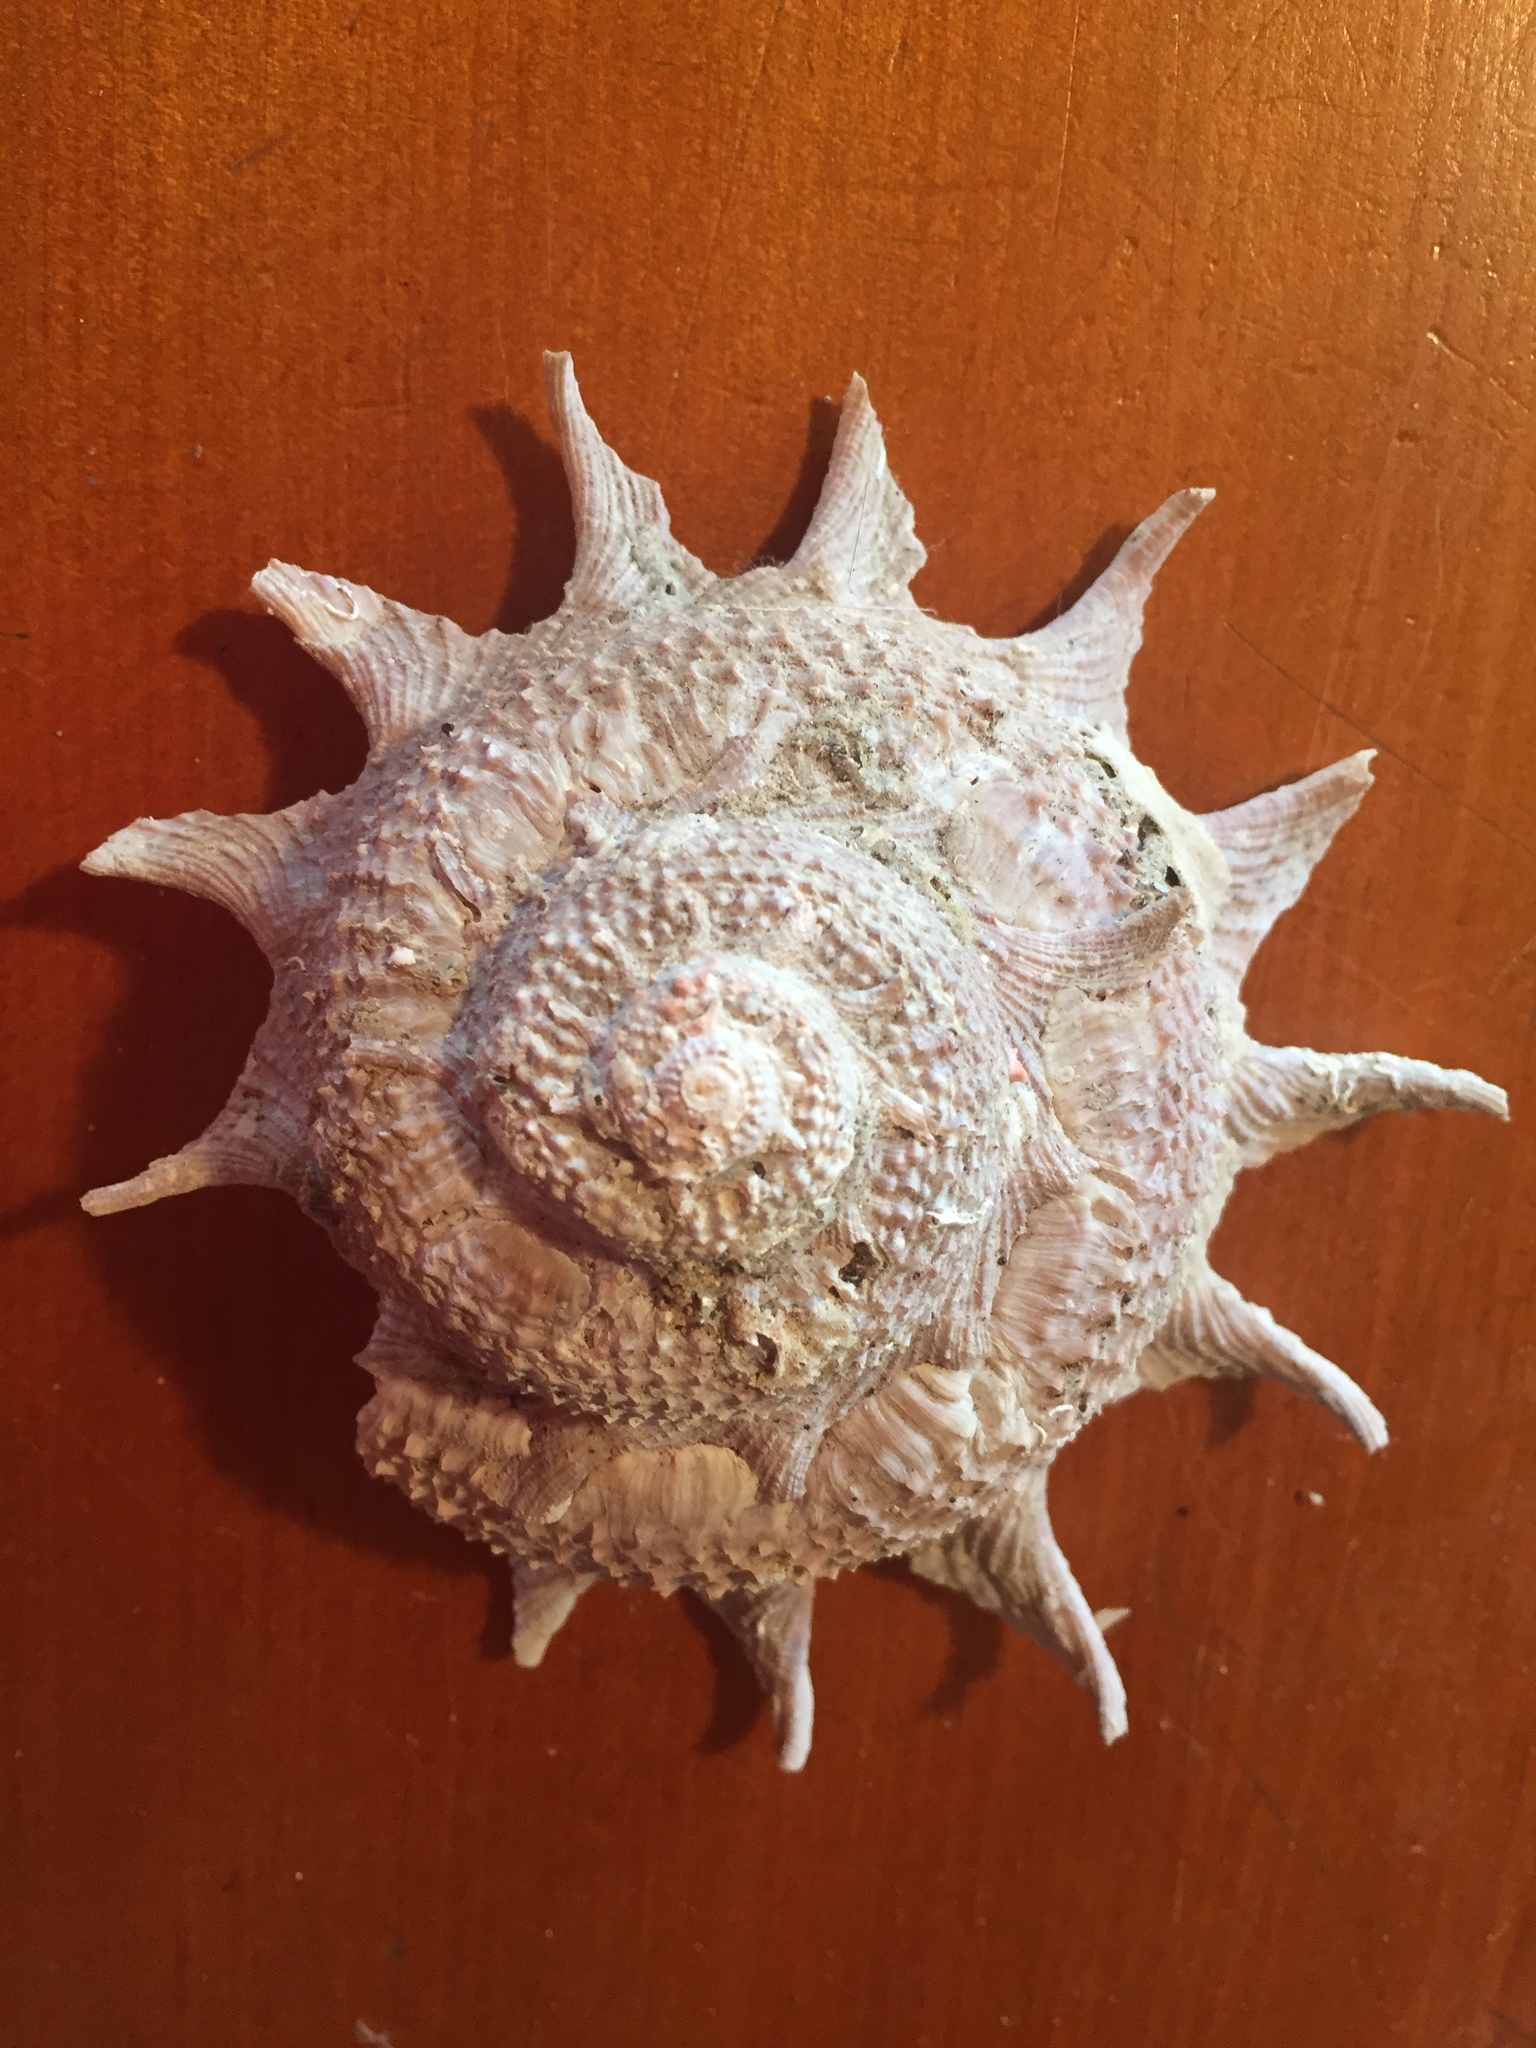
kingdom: Animalia
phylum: Mollusca
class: Gastropoda
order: Trochida
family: Turbinidae
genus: Astraea
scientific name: Astraea heliotropium
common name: Sun shell
